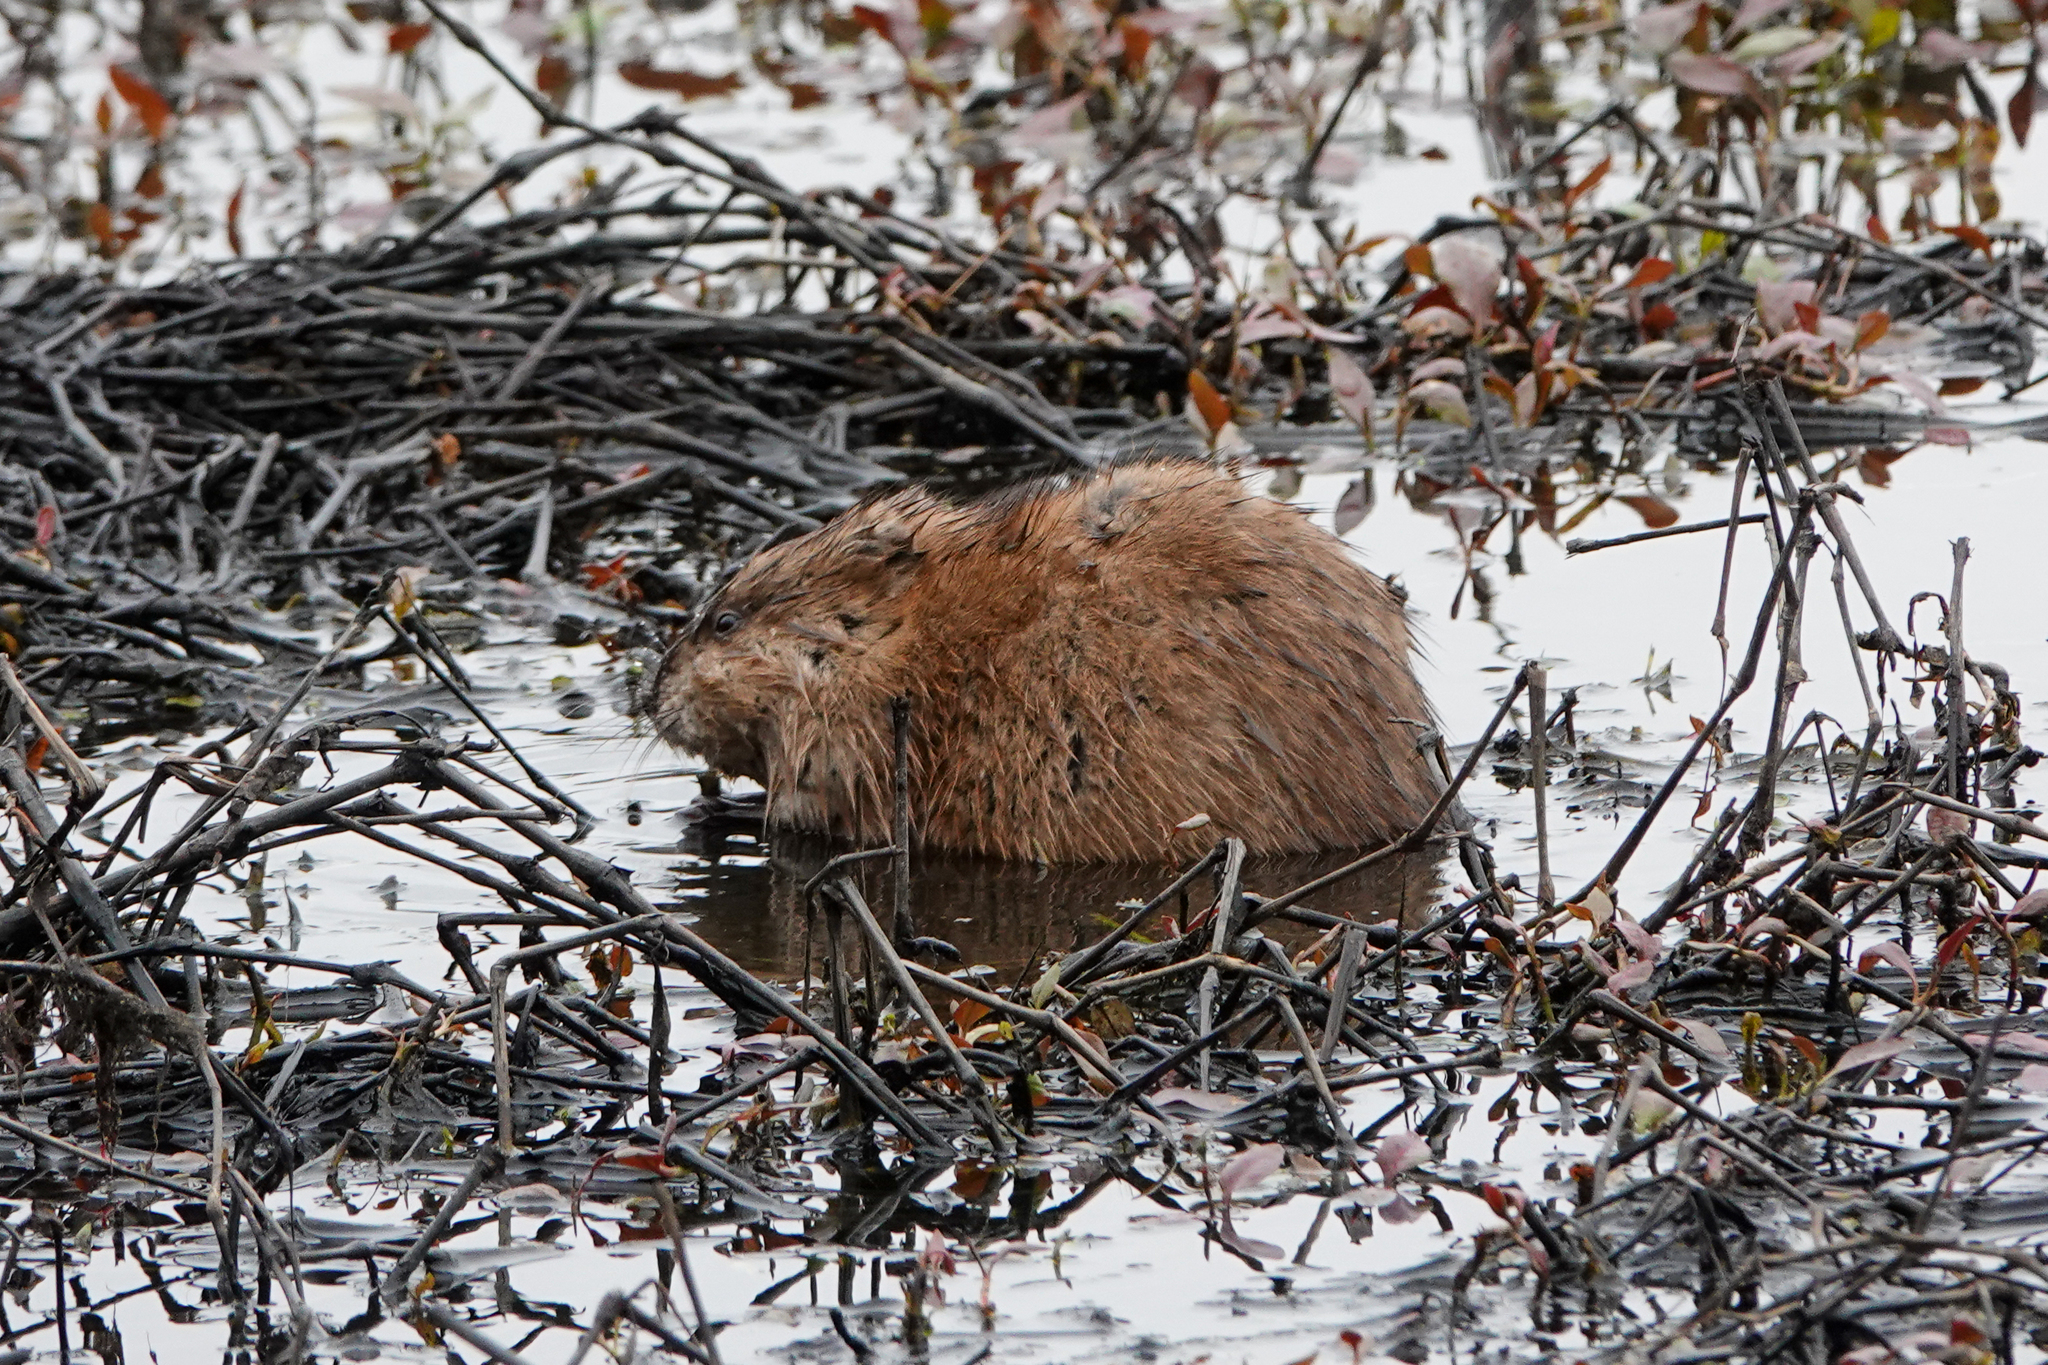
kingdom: Animalia
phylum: Chordata
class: Mammalia
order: Rodentia
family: Cricetidae
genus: Ondatra
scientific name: Ondatra zibethicus
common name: Muskrat
